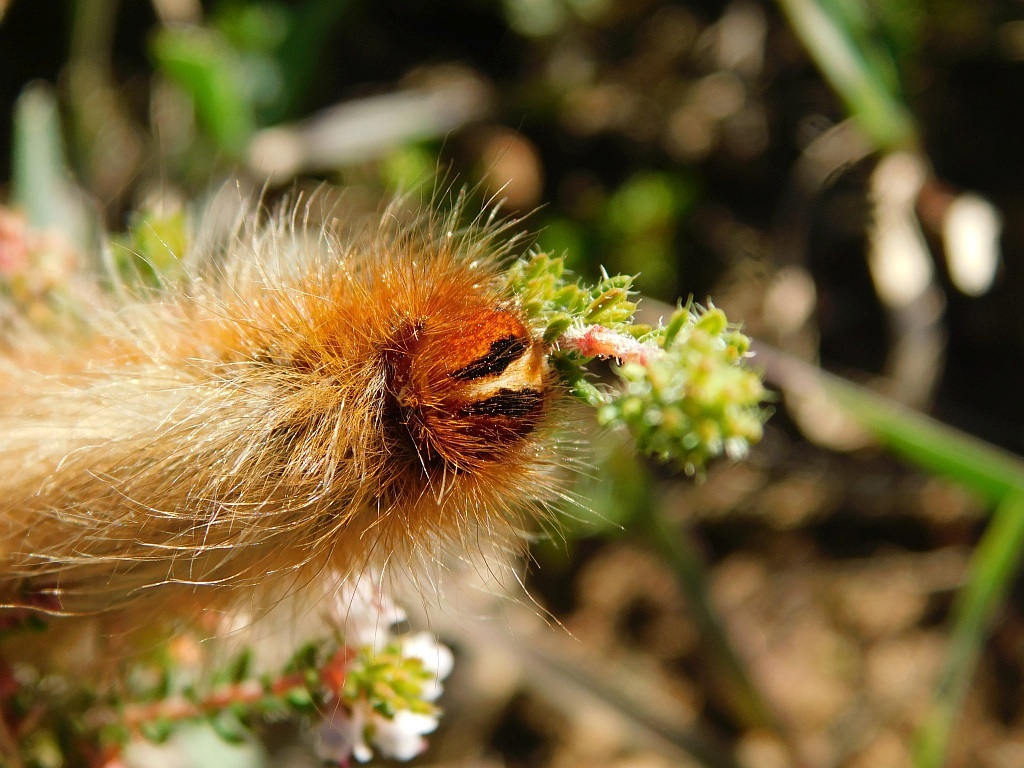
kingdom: Animalia
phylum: Arthropoda
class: Insecta
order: Lepidoptera
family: Lasiocampidae
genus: Mesocelis
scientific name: Mesocelis monticola
